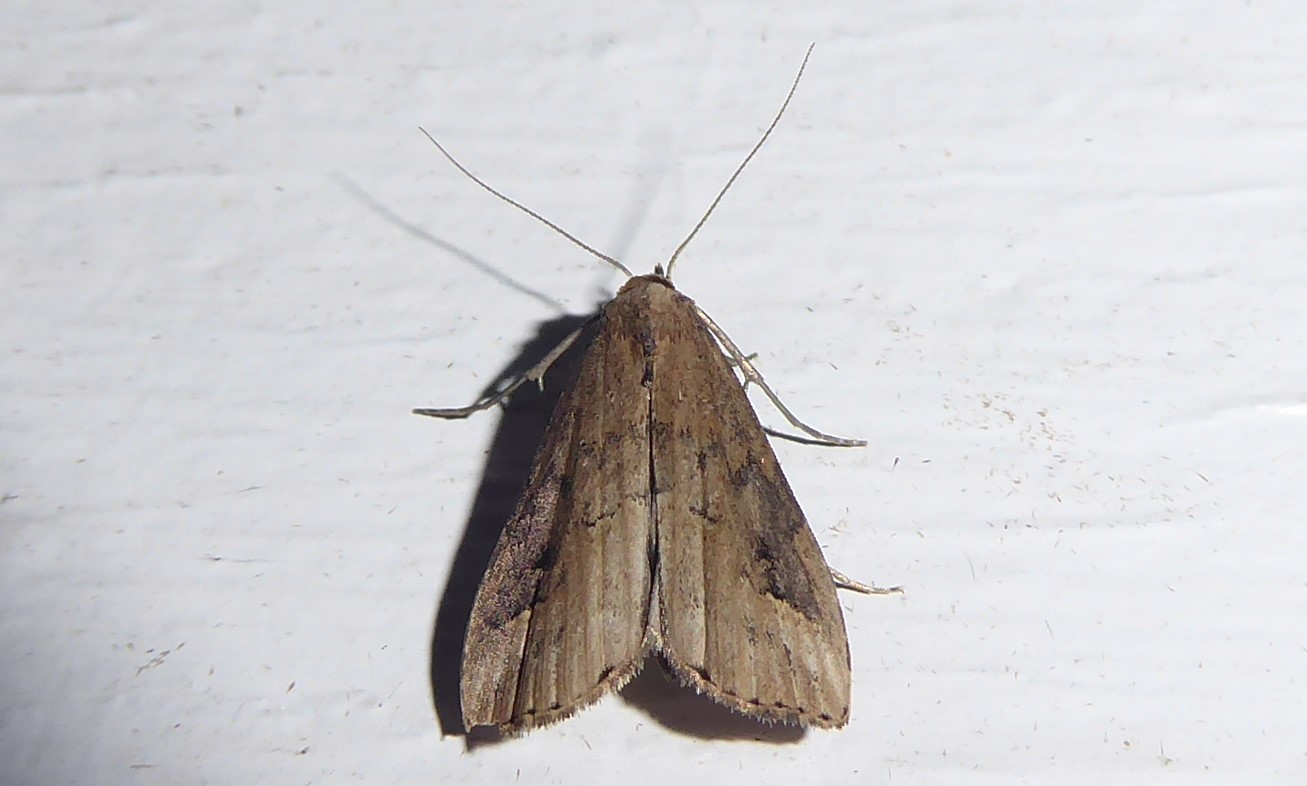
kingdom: Animalia
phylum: Arthropoda
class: Insecta
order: Lepidoptera
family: Erebidae
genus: Schrankia
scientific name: Schrankia costaestrigalis
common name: Pinion-streaked snout
